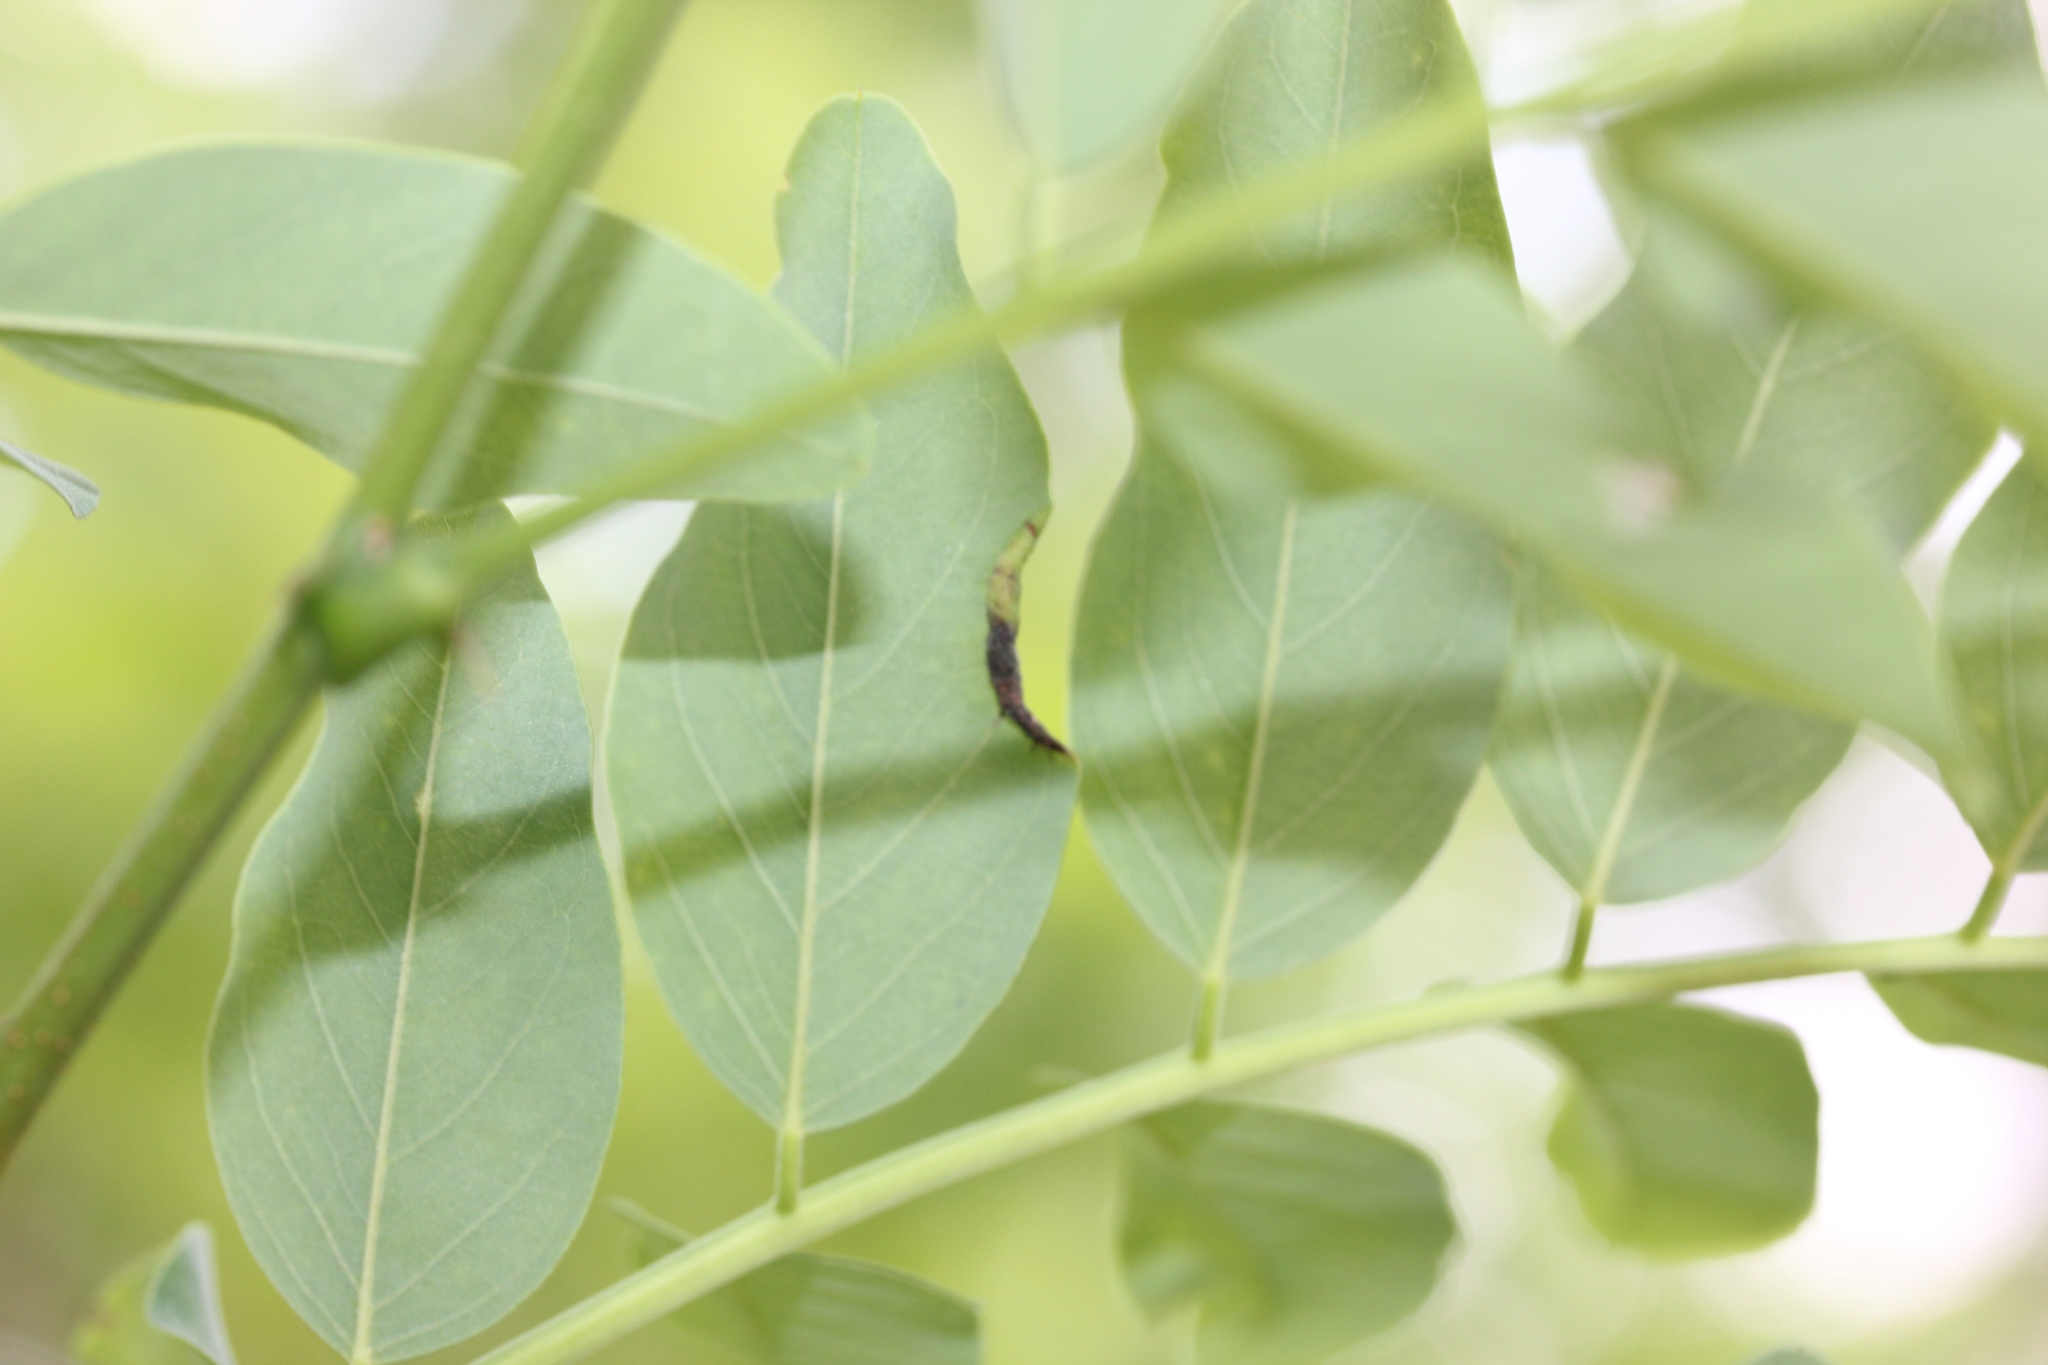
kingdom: Animalia
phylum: Arthropoda
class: Insecta
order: Diptera
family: Cecidomyiidae
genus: Obolodiplosis
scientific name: Obolodiplosis robiniae
